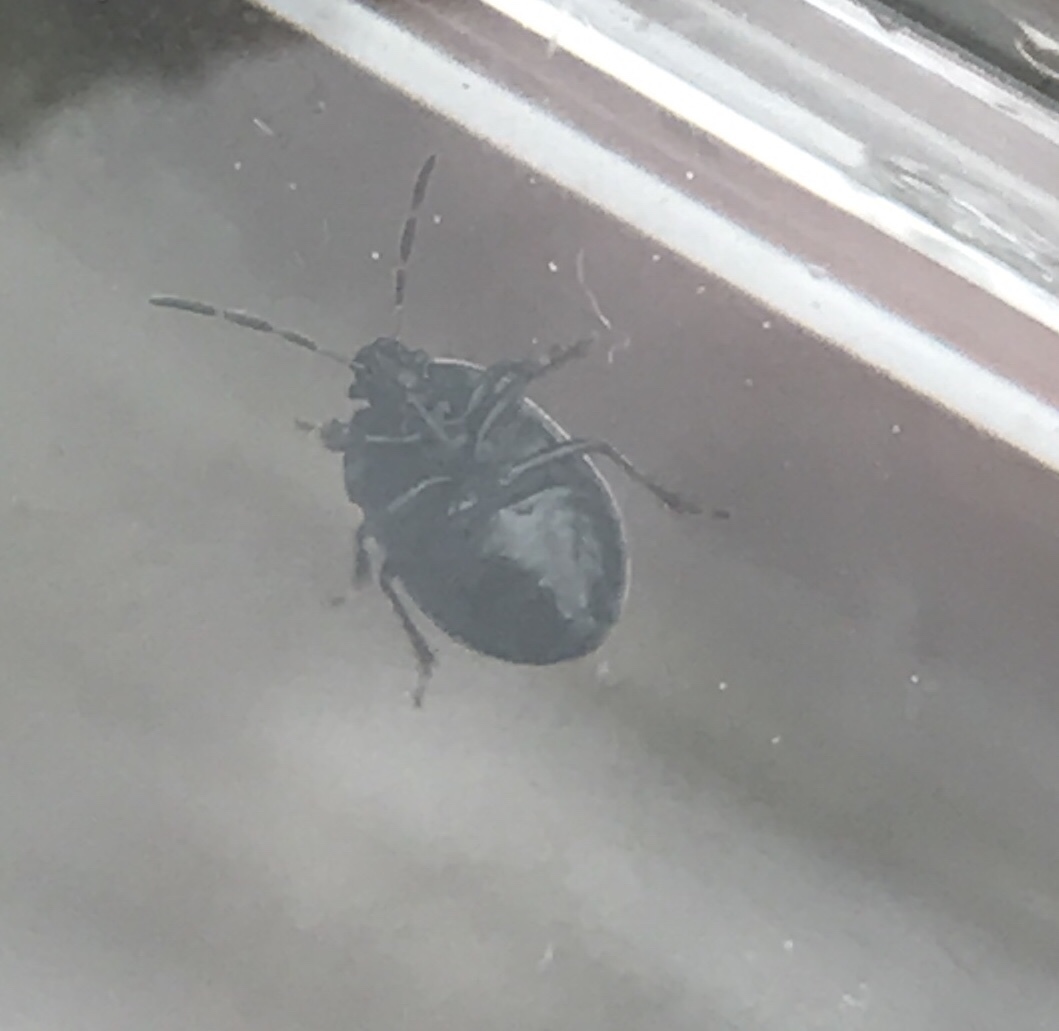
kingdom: Animalia
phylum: Arthropoda
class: Insecta
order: Hemiptera
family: Cydnidae
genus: Sehirus
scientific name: Sehirus cinctus
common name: White-margined burrower bug
